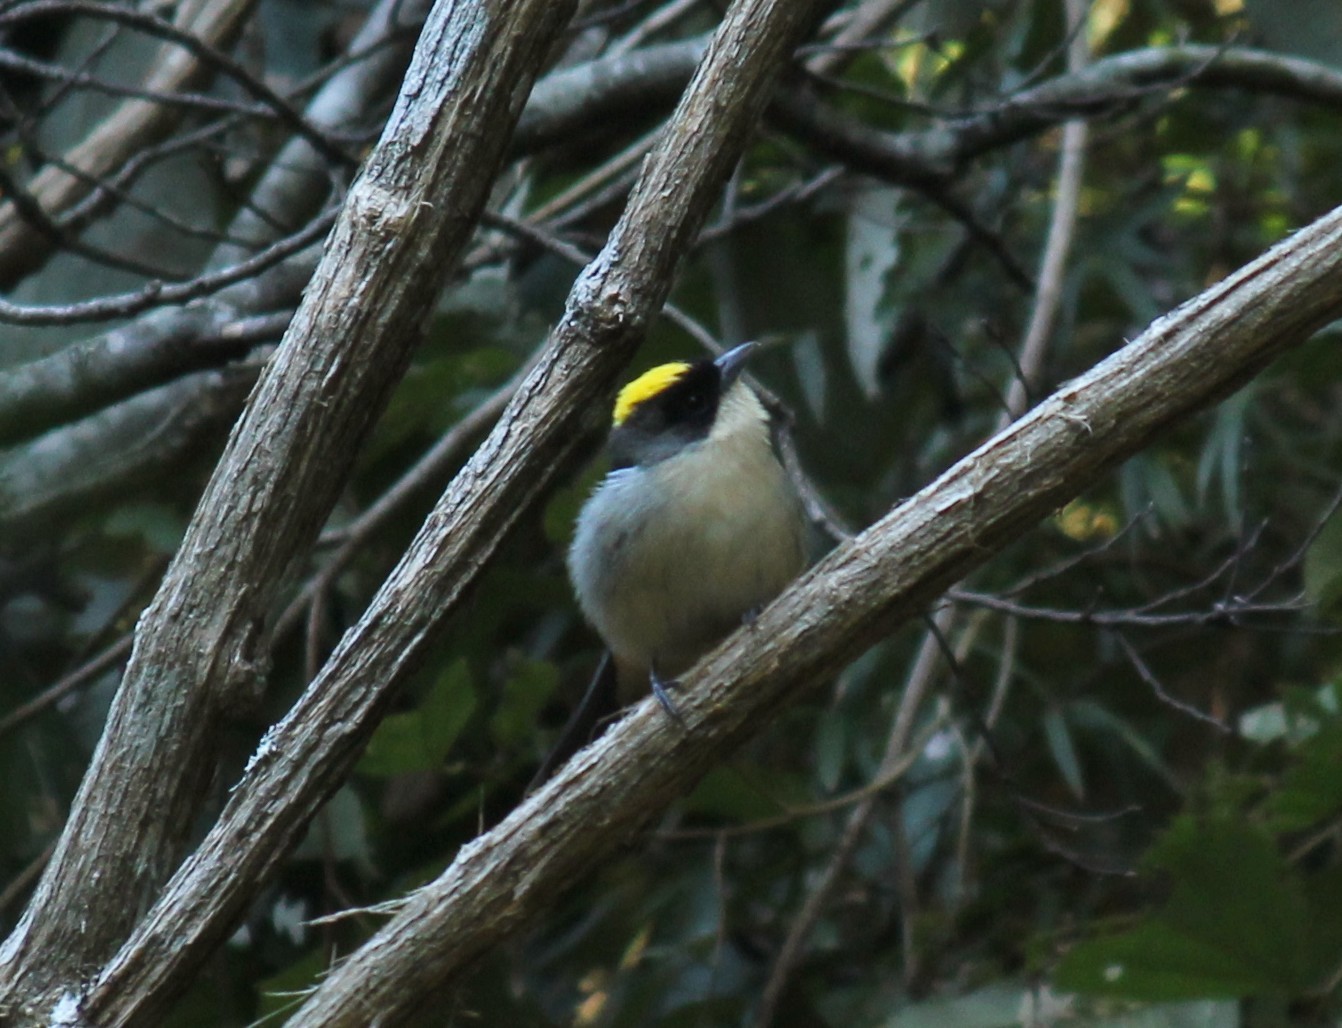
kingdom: Animalia
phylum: Chordata
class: Aves
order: Passeriformes
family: Thraupidae
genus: Trichothraupis
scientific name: Trichothraupis melanops
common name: Black-goggled tanager
